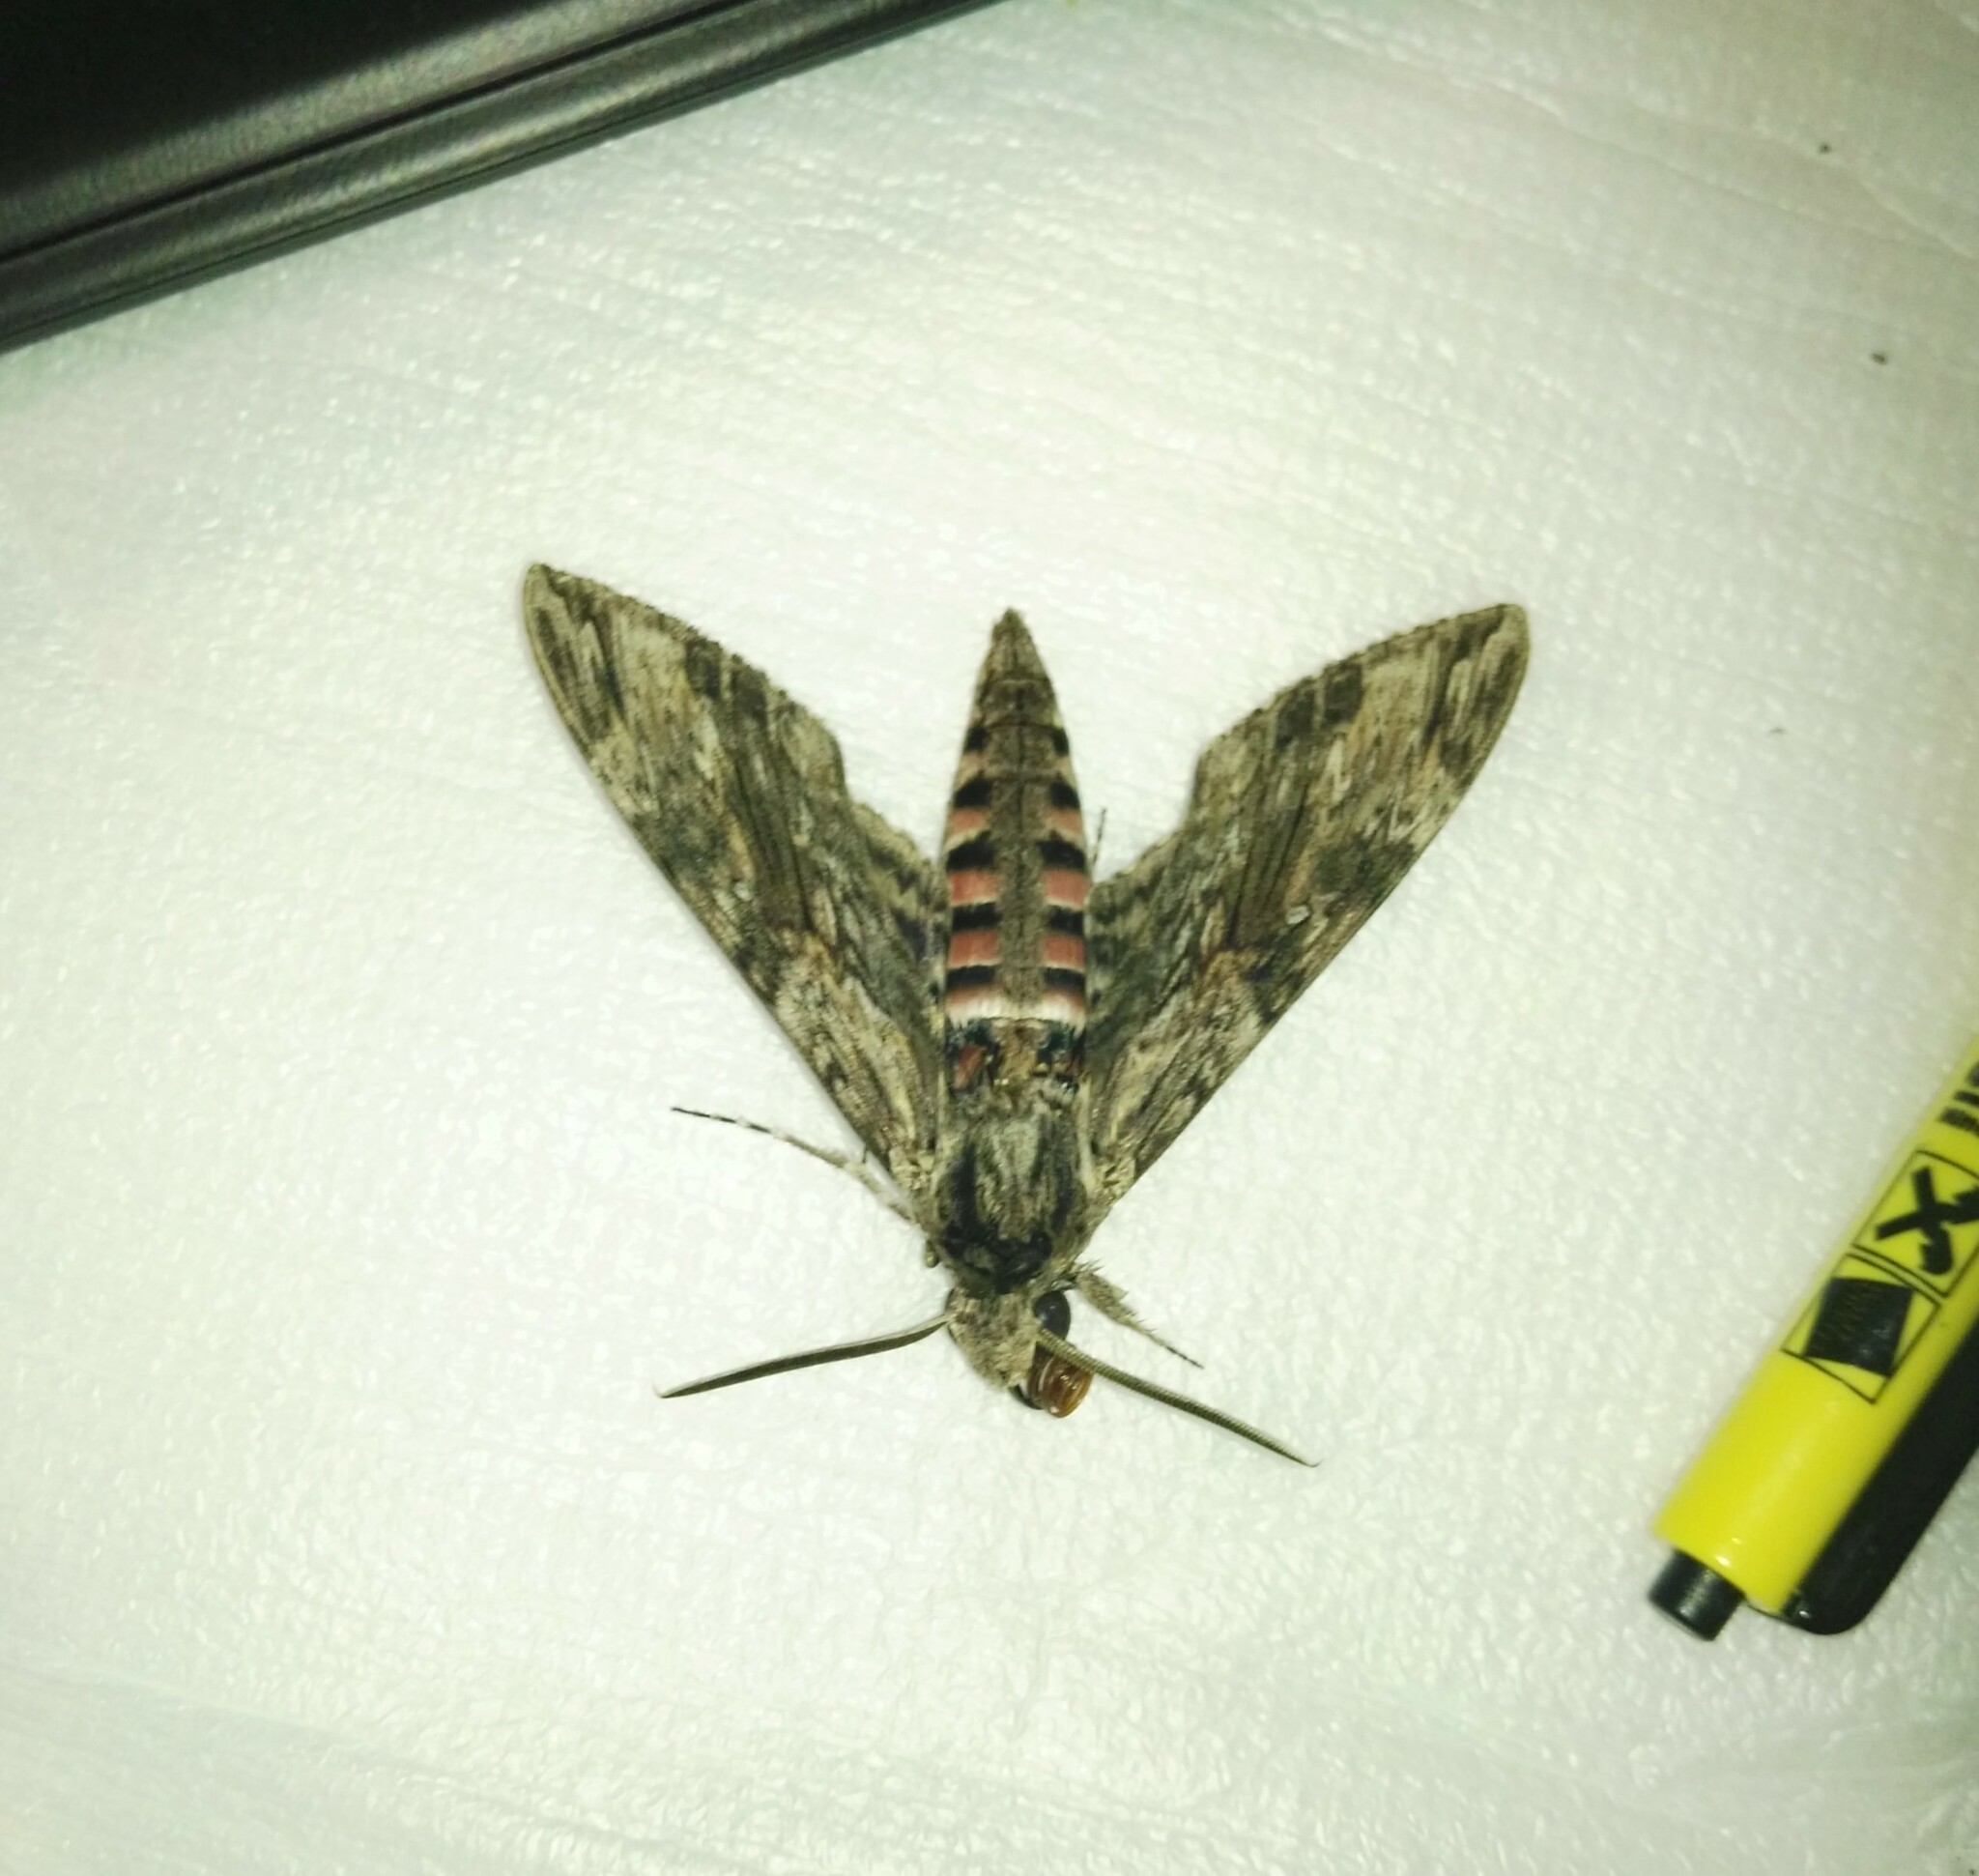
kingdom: Animalia
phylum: Arthropoda
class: Insecta
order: Lepidoptera
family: Sphingidae
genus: Agrius
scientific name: Agrius convolvuli
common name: Convolvulus hawkmoth
